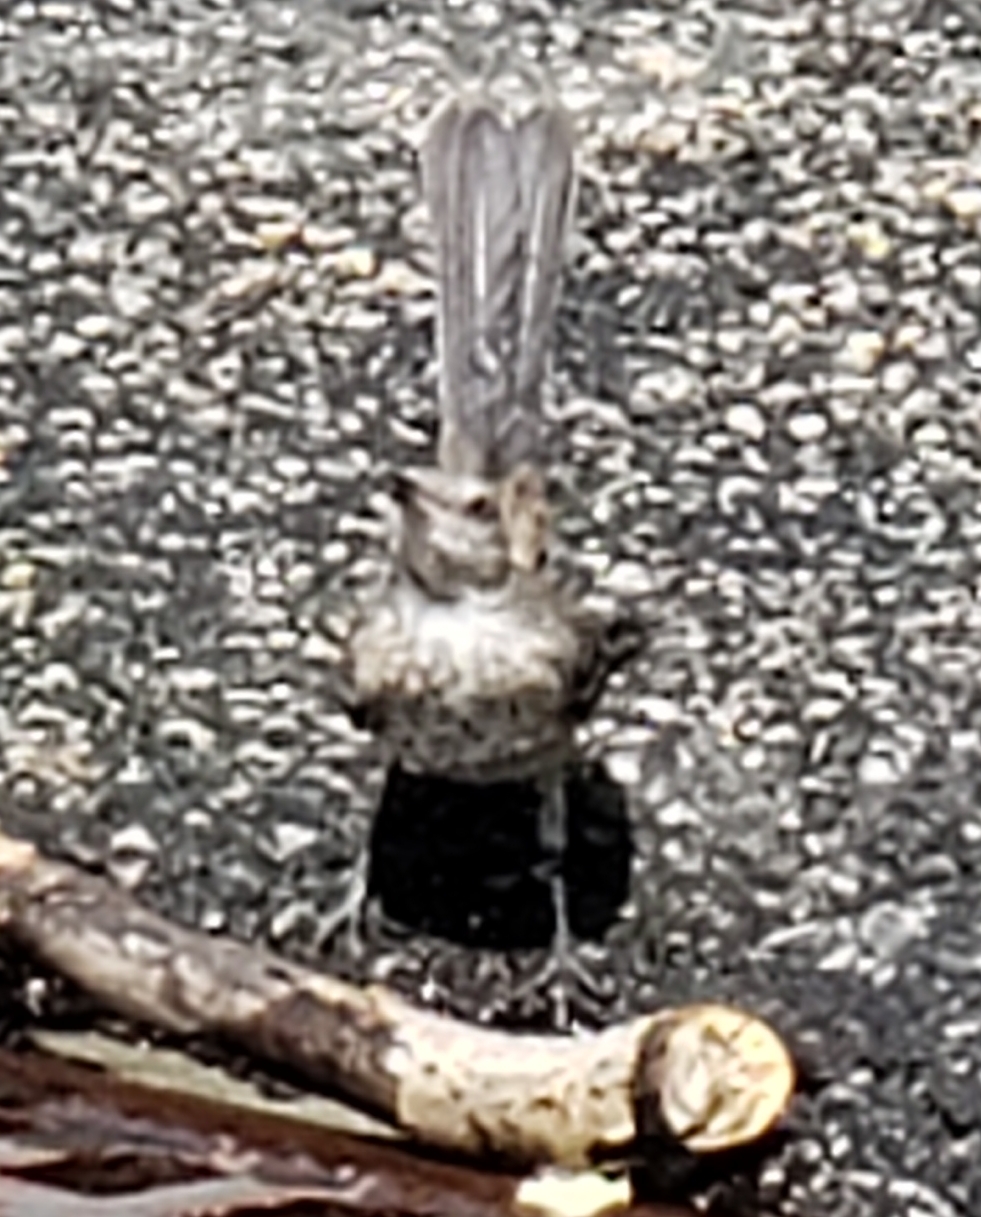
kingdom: Animalia
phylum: Chordata
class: Aves
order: Passeriformes
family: Mimidae
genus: Mimus
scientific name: Mimus polyglottos
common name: Northern mockingbird
